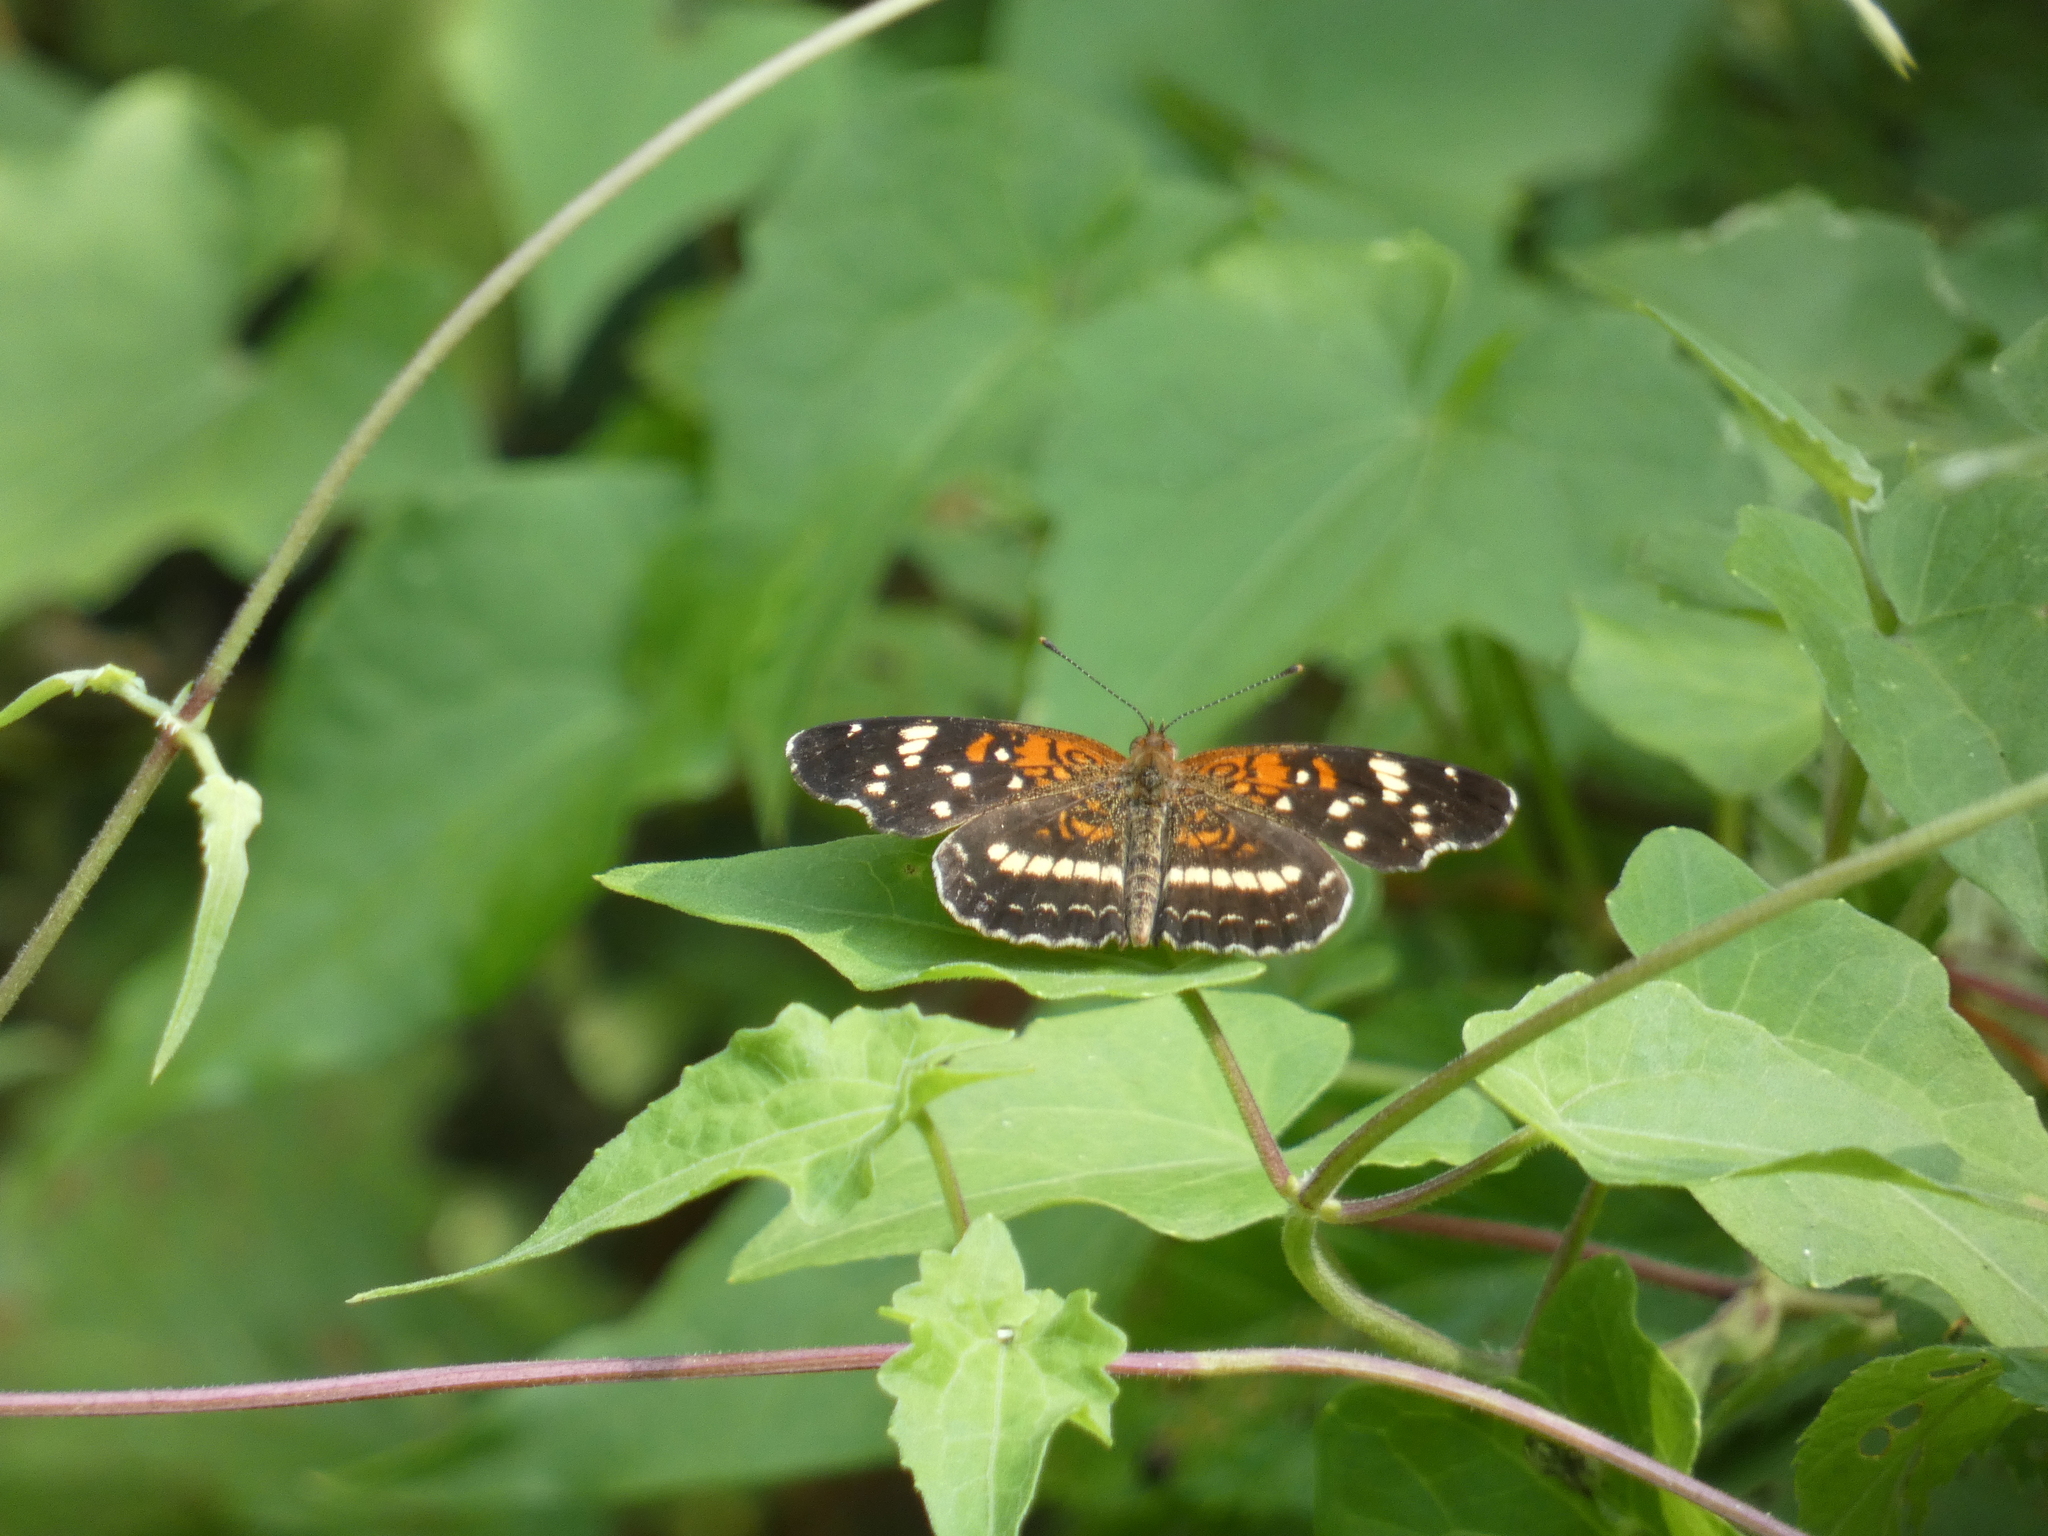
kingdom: Animalia
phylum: Arthropoda
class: Insecta
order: Lepidoptera
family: Nymphalidae
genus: Anthanassa
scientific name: Anthanassa taxana
